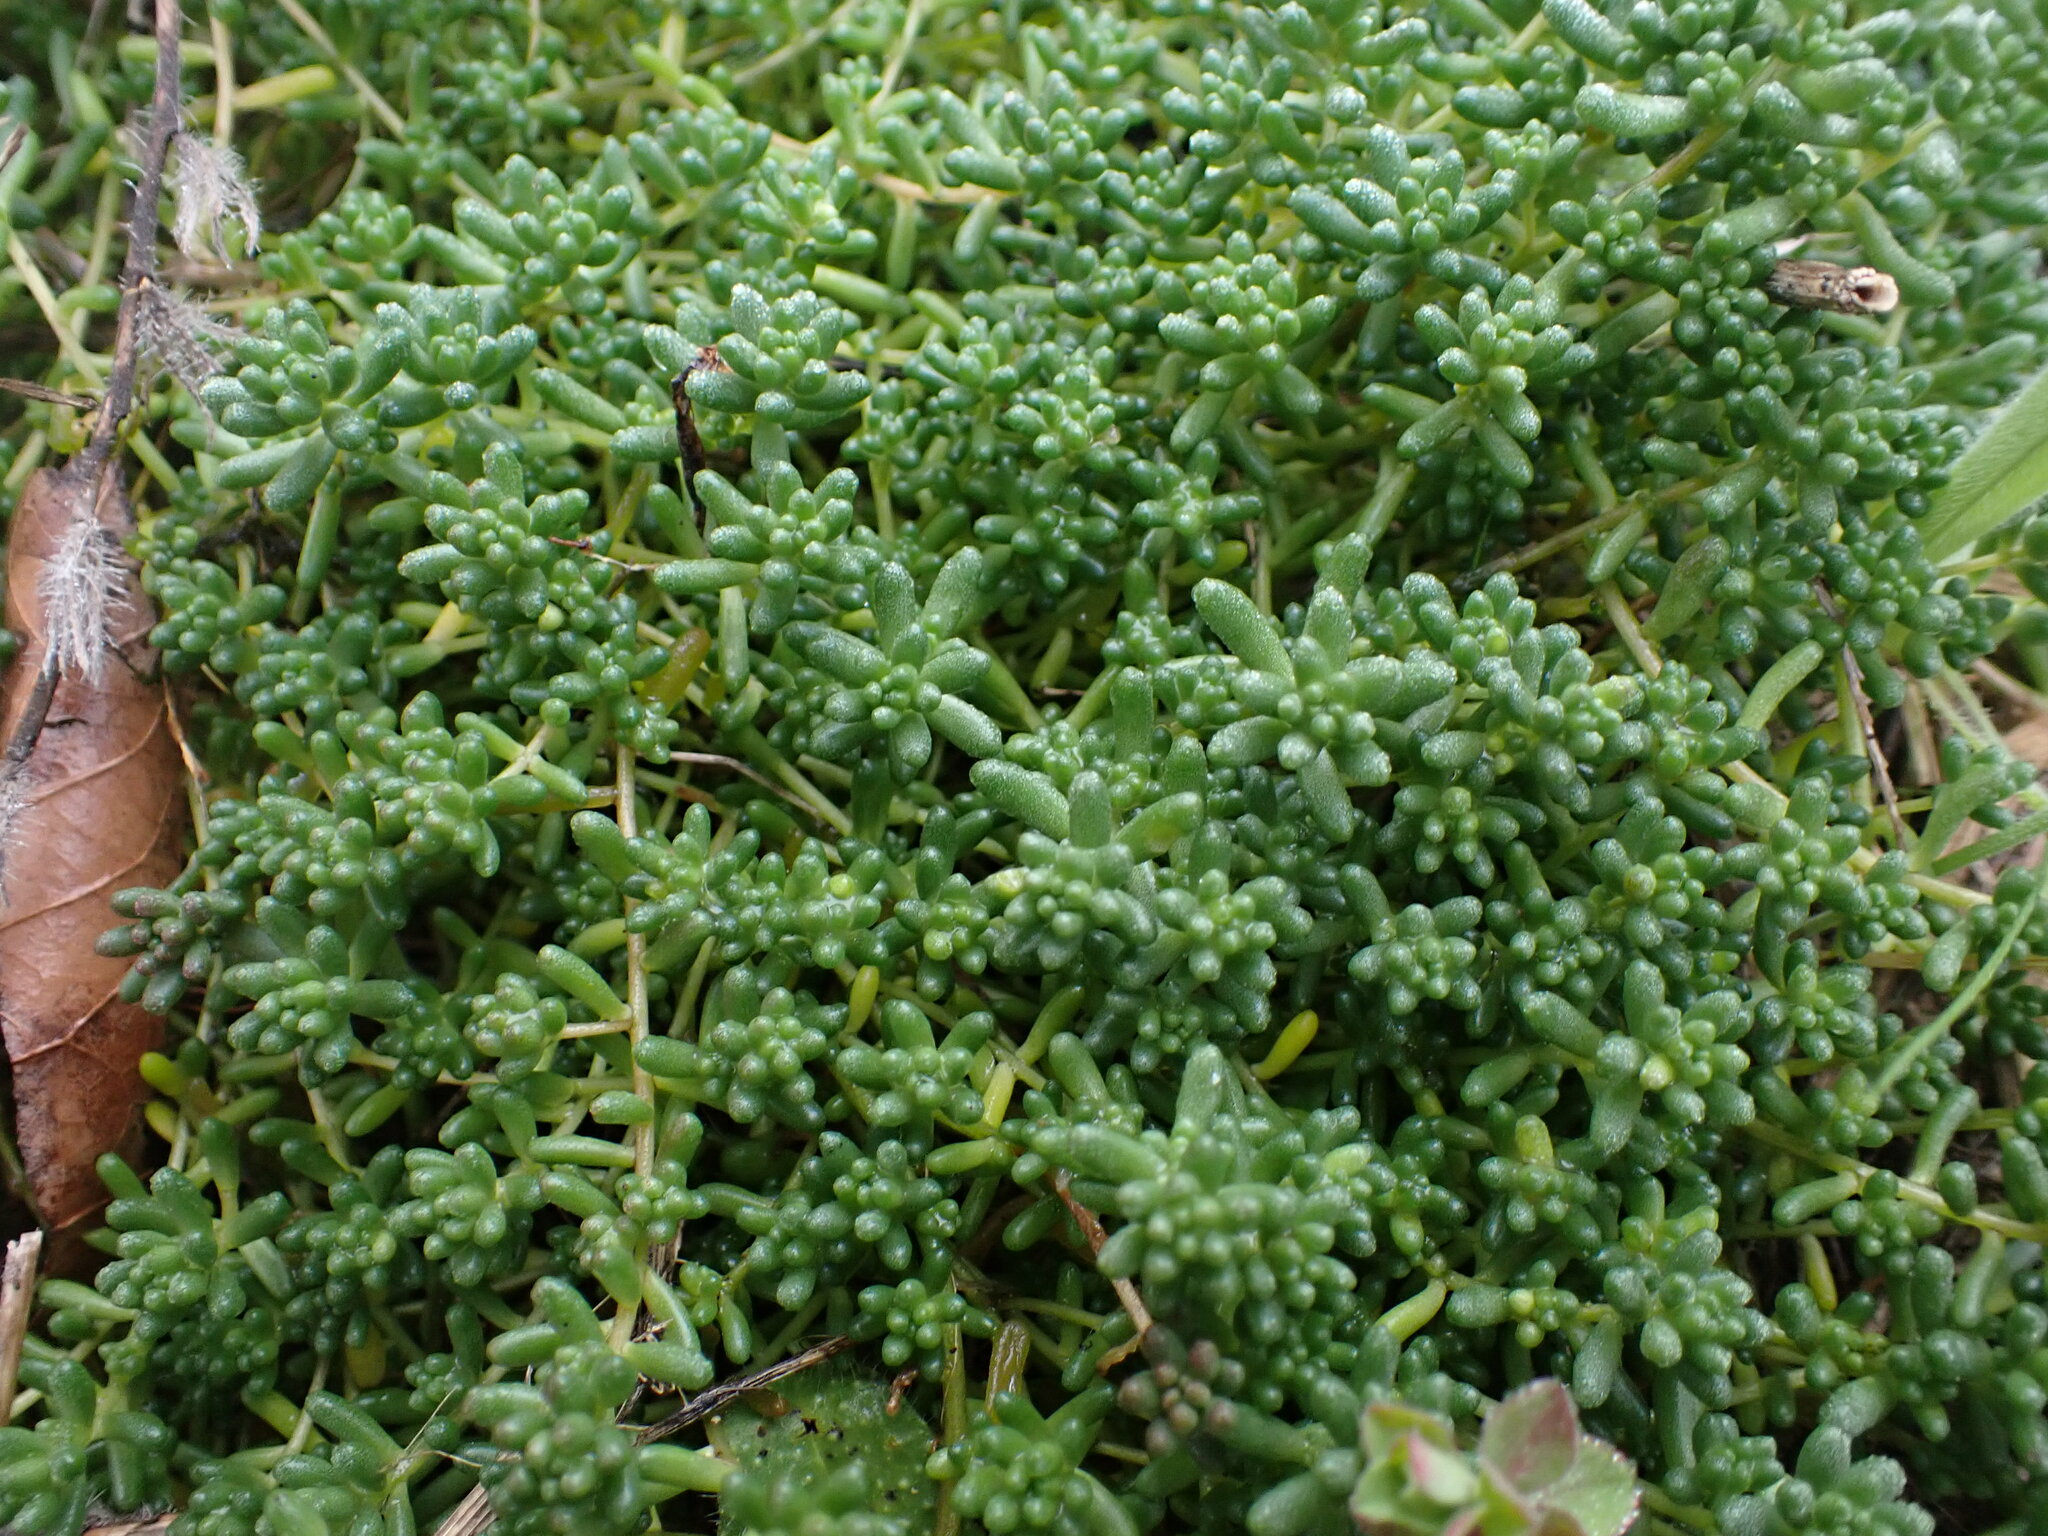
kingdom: Plantae
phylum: Tracheophyta
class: Magnoliopsida
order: Saxifragales
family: Crassulaceae
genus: Sedum
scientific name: Sedum album
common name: White stonecrop
